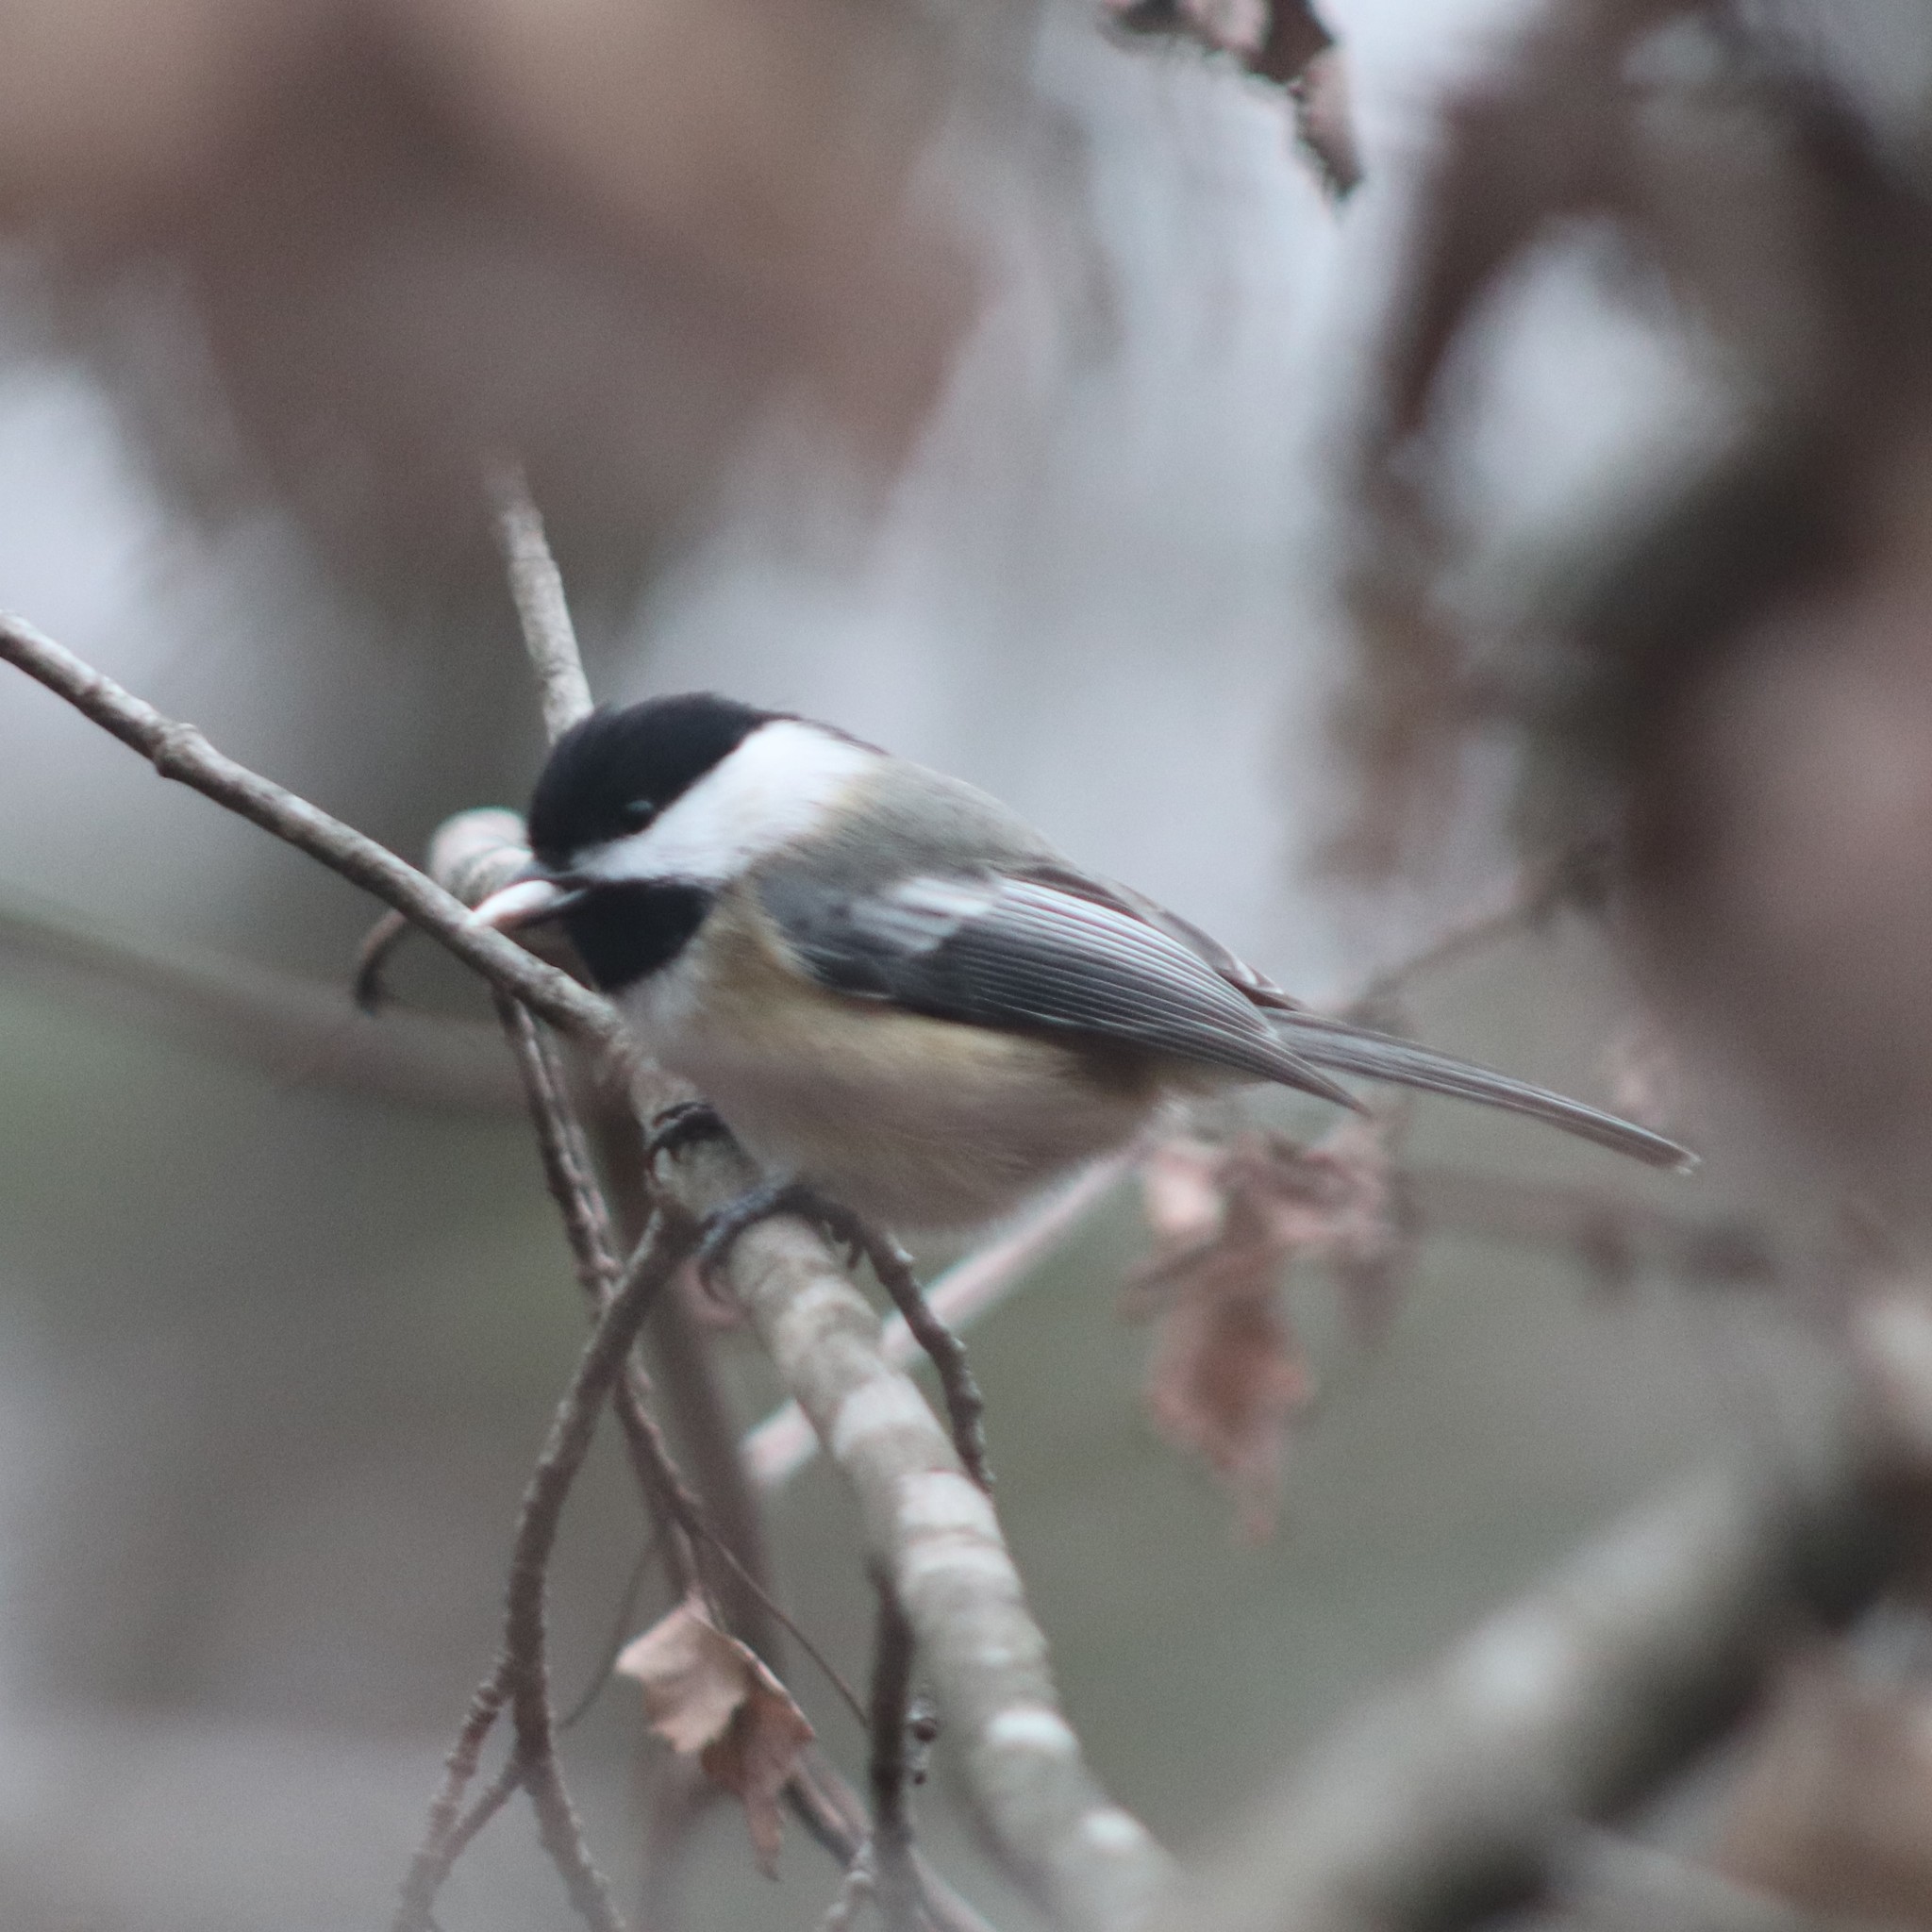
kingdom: Animalia
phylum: Chordata
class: Aves
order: Passeriformes
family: Paridae
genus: Poecile
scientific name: Poecile atricapillus
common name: Black-capped chickadee
